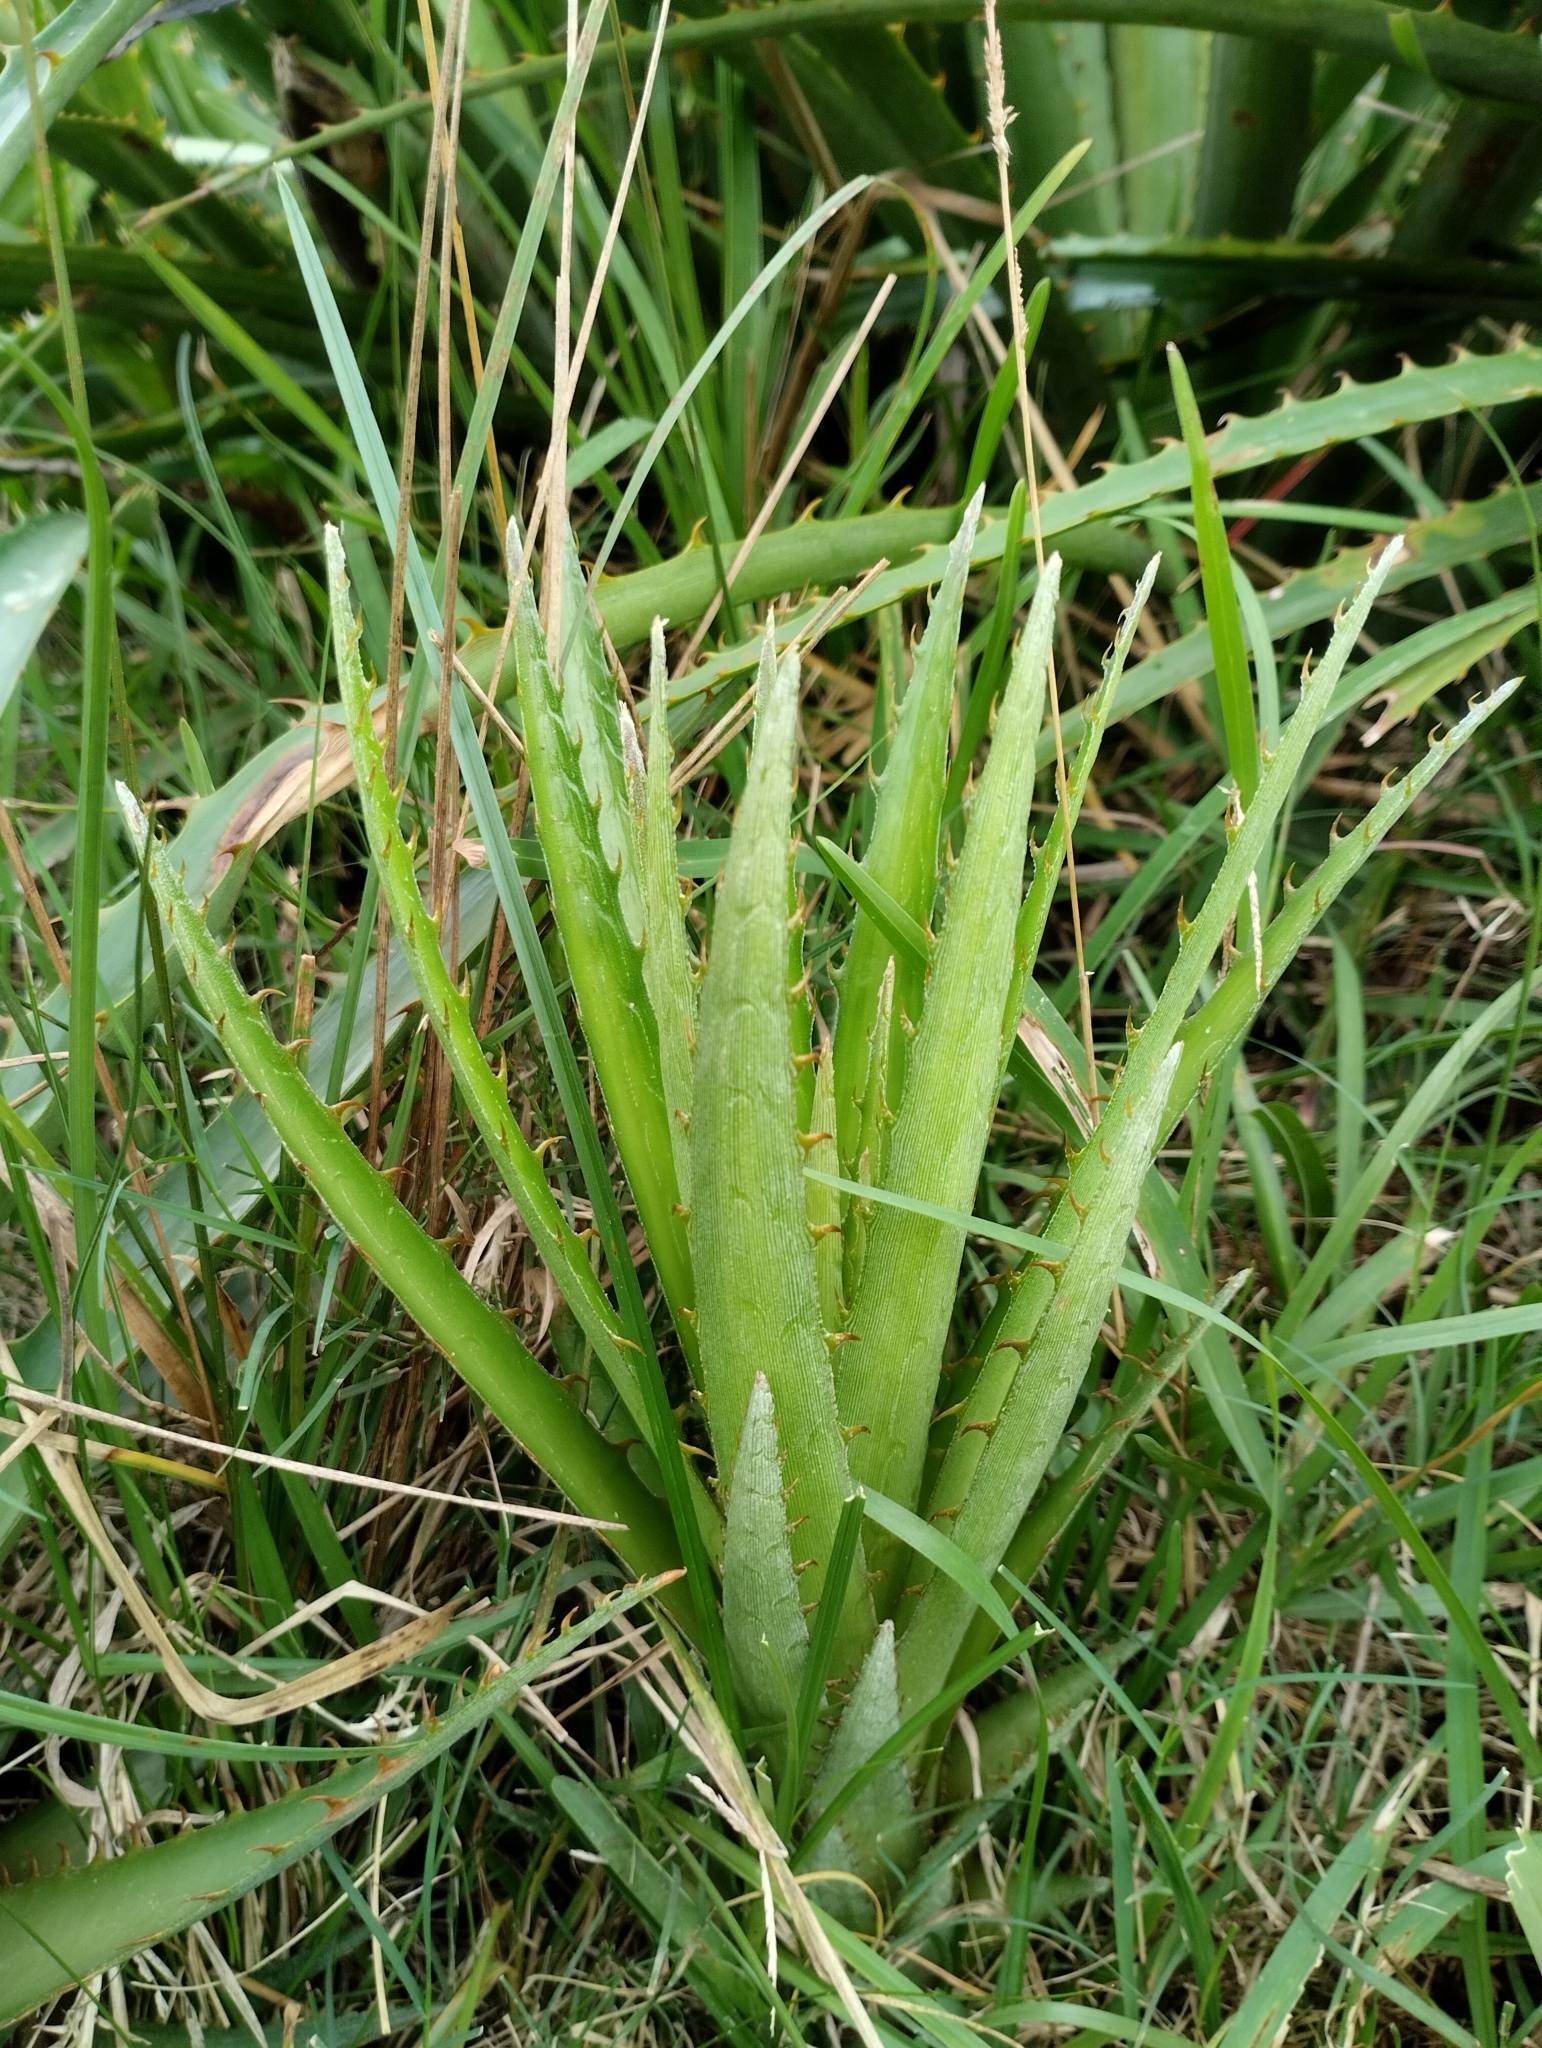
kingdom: Plantae
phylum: Tracheophyta
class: Liliopsida
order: Poales
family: Bromeliaceae
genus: Bromelia
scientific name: Bromelia antiacantha
